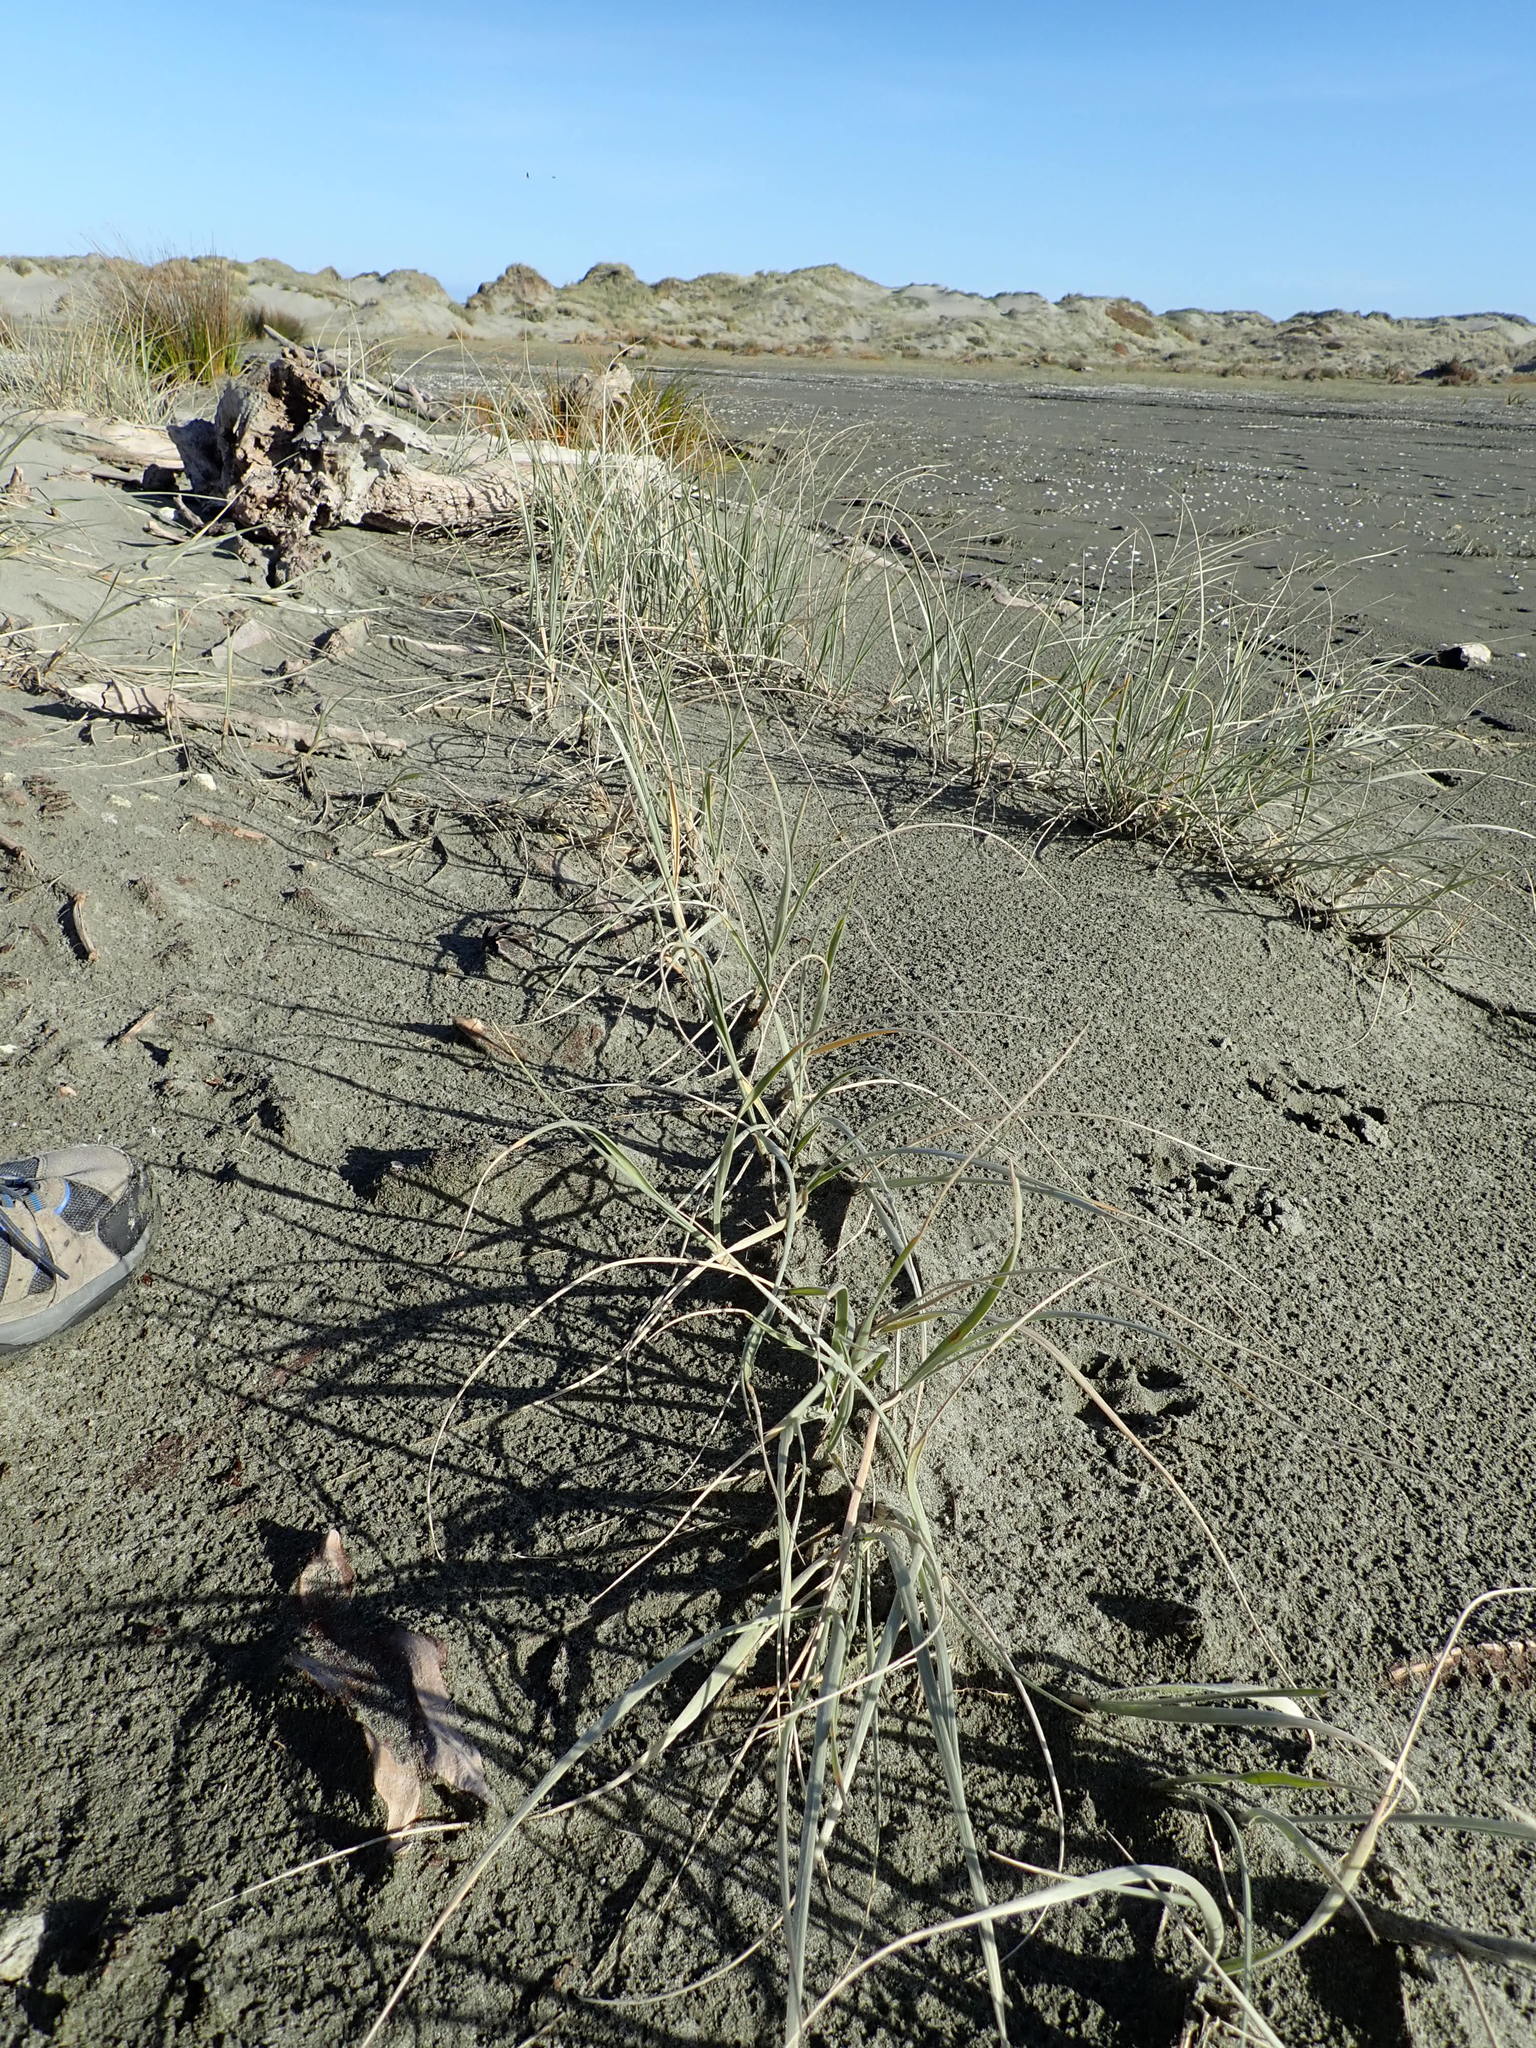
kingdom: Plantae
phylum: Tracheophyta
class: Liliopsida
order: Poales
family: Poaceae
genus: Spinifex
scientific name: Spinifex sericeus
